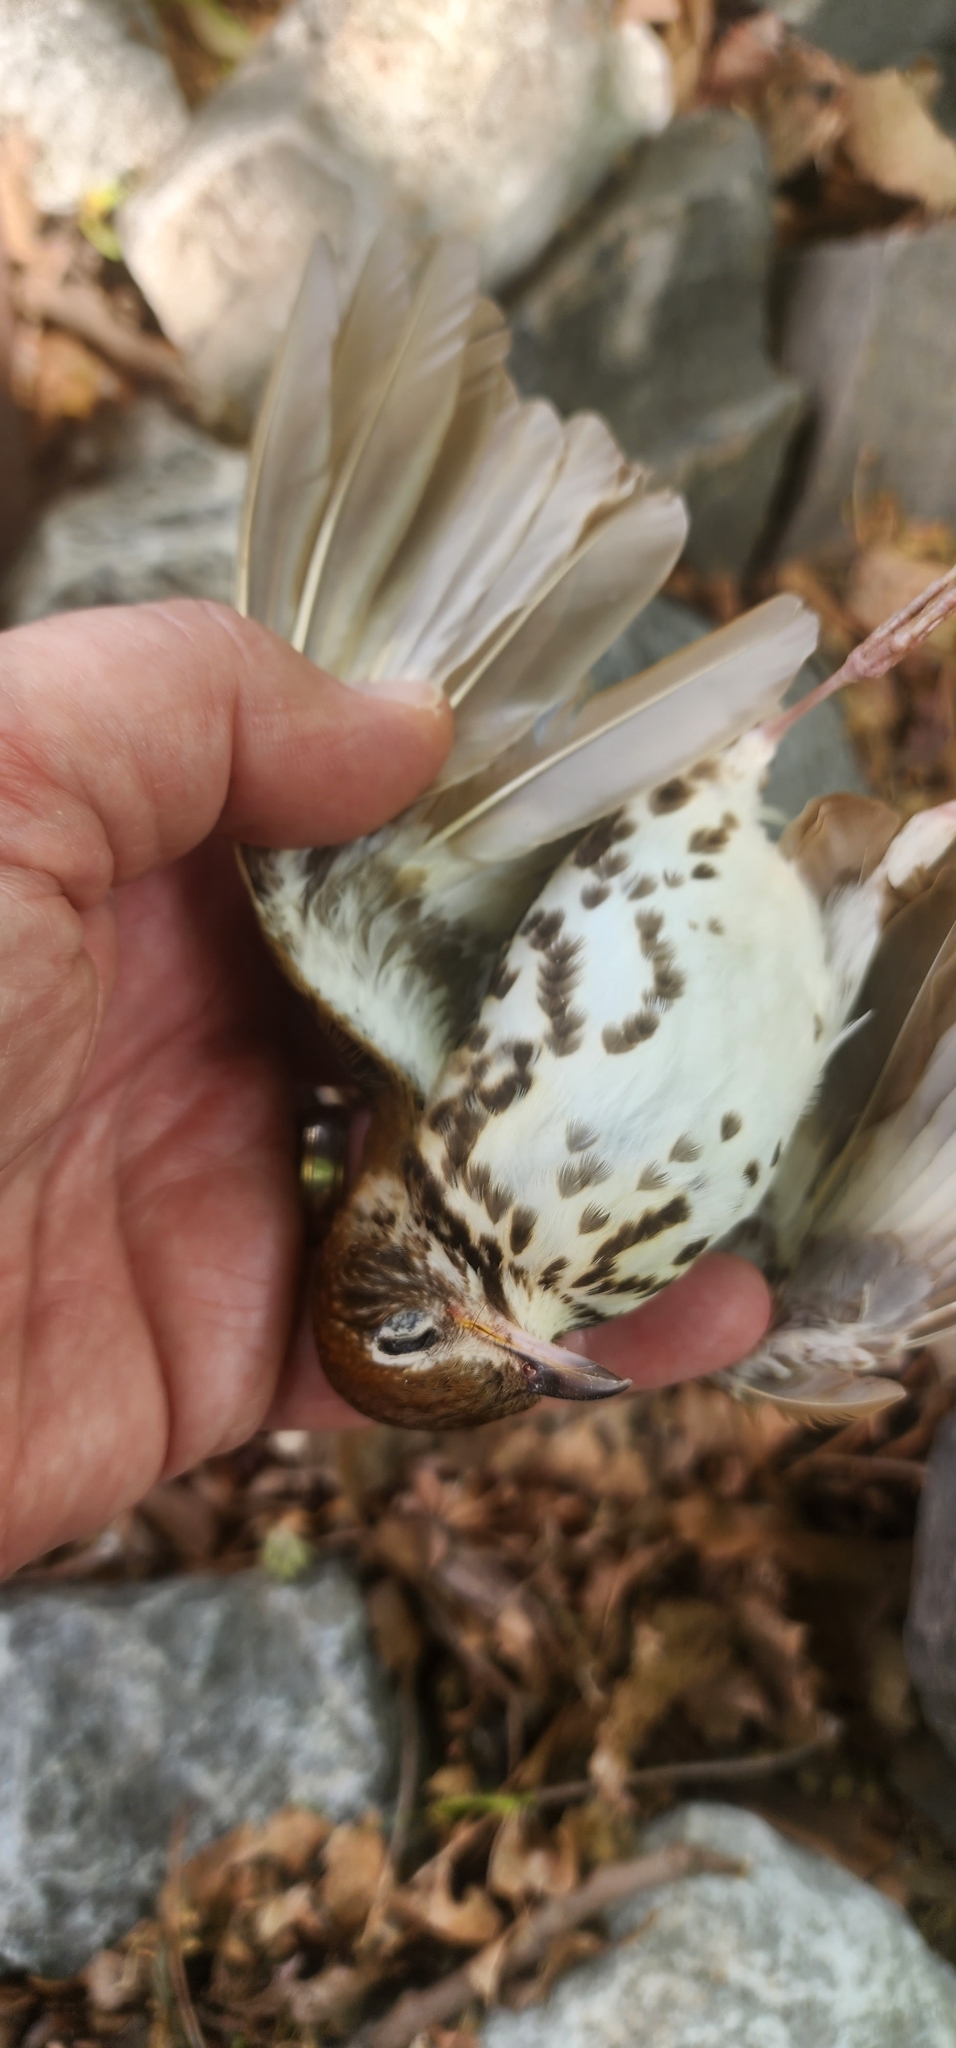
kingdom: Animalia
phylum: Chordata
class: Aves
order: Passeriformes
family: Turdidae
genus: Hylocichla
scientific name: Hylocichla mustelina
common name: Wood thrush
